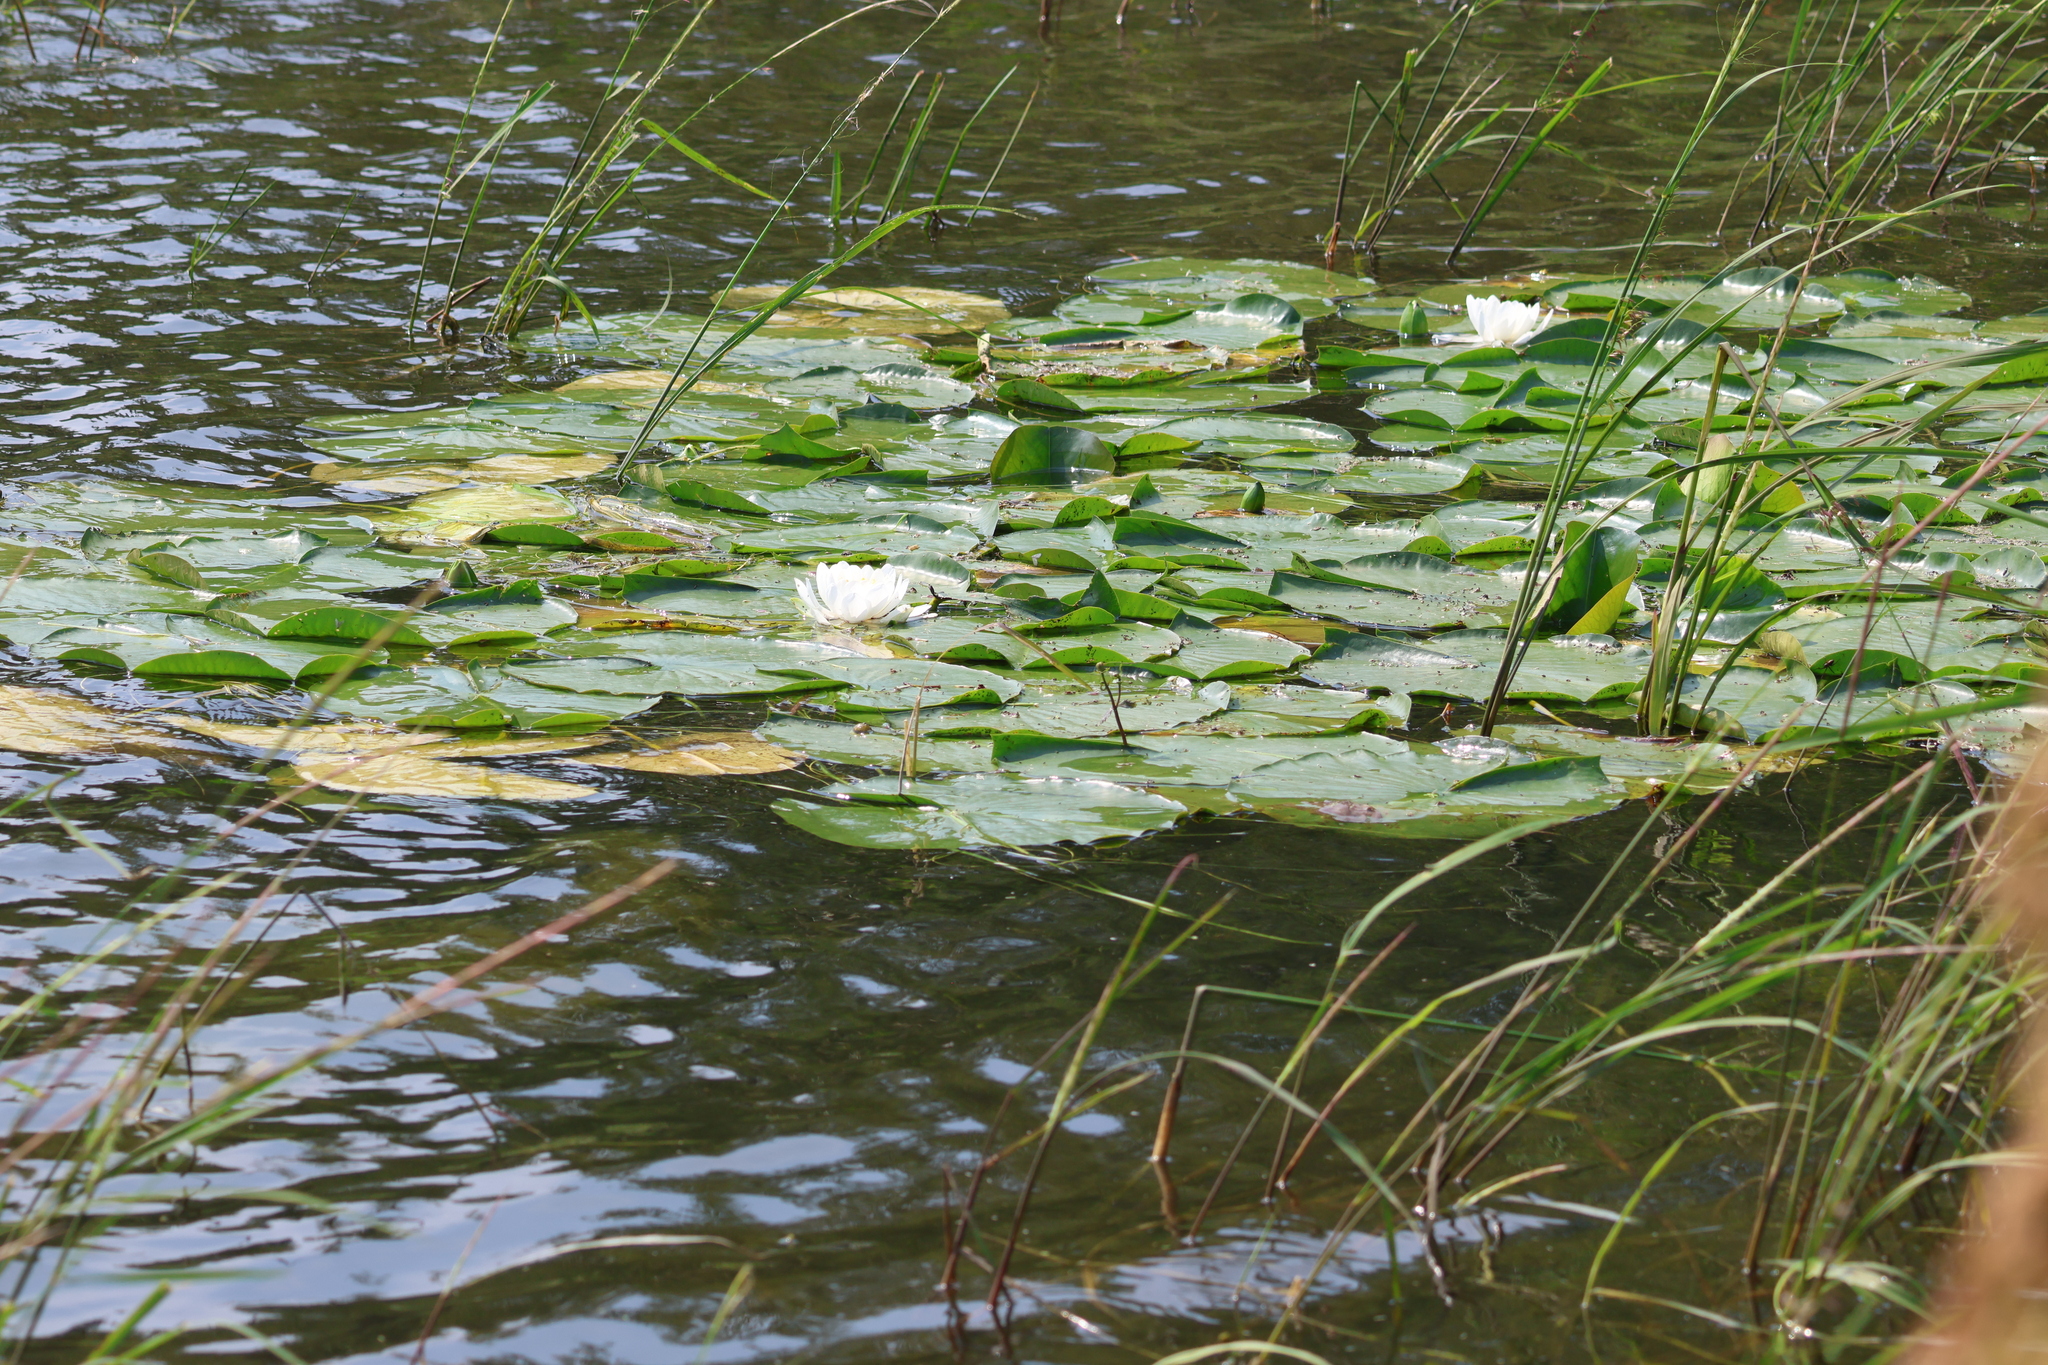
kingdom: Plantae
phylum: Tracheophyta
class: Magnoliopsida
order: Nymphaeales
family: Nymphaeaceae
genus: Nymphaea
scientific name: Nymphaea odorata
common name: Fragrant water-lily
